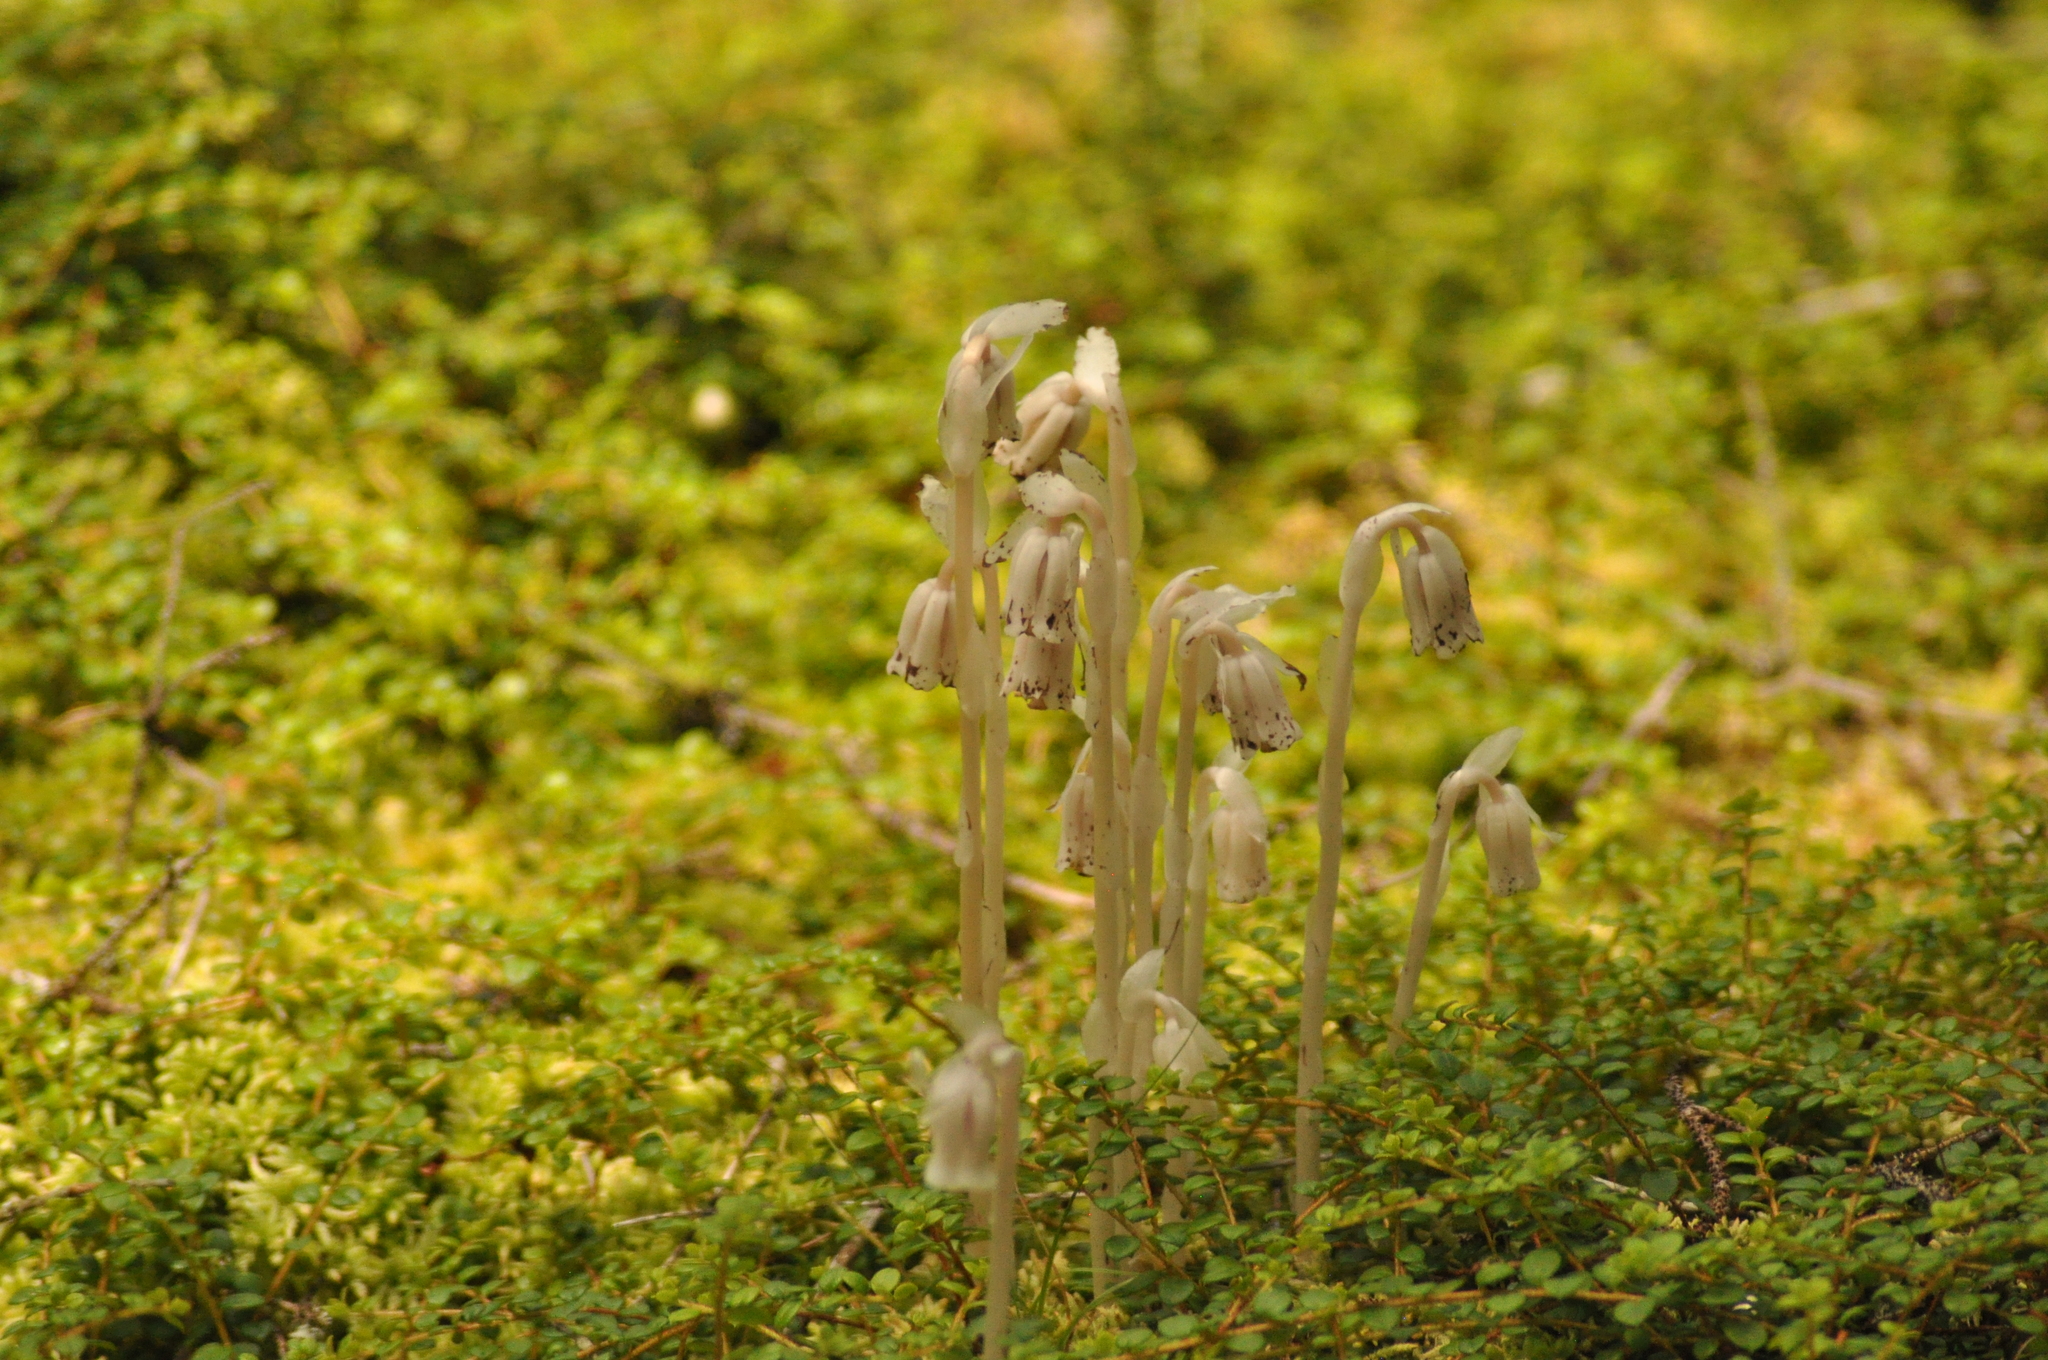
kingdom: Plantae
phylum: Tracheophyta
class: Magnoliopsida
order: Ericales
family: Ericaceae
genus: Monotropa
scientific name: Monotropa uniflora
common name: Convulsion root
